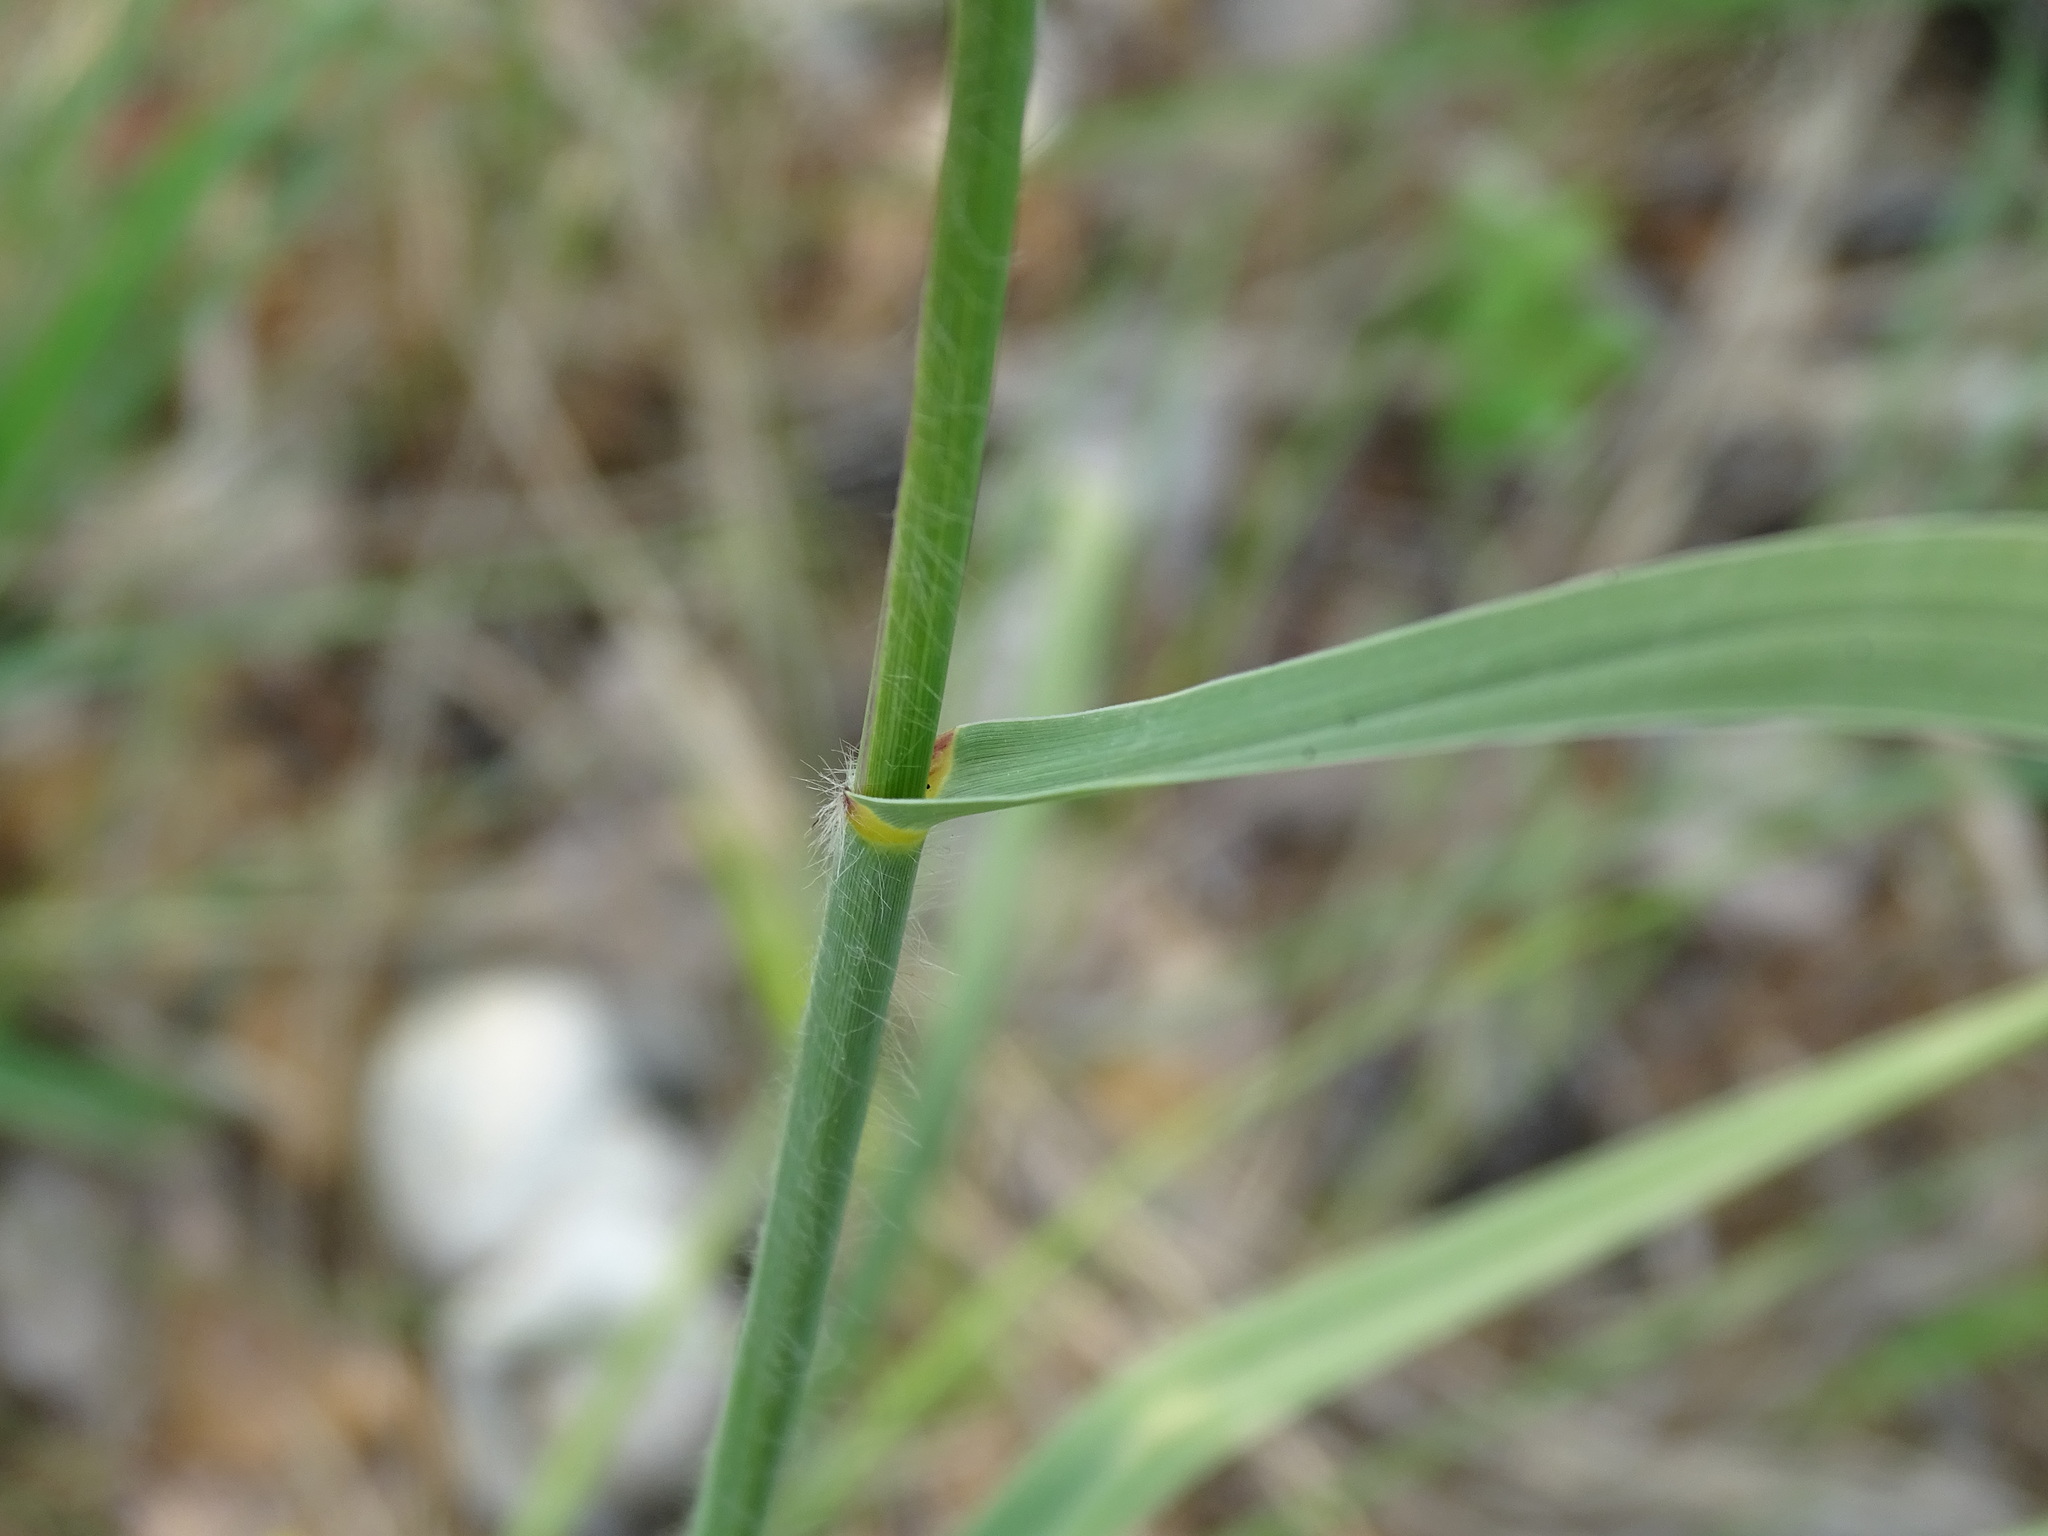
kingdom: Plantae
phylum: Tracheophyta
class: Liliopsida
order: Poales
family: Poaceae
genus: Sporobolus
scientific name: Sporobolus rigidus
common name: Prairie sandreed
